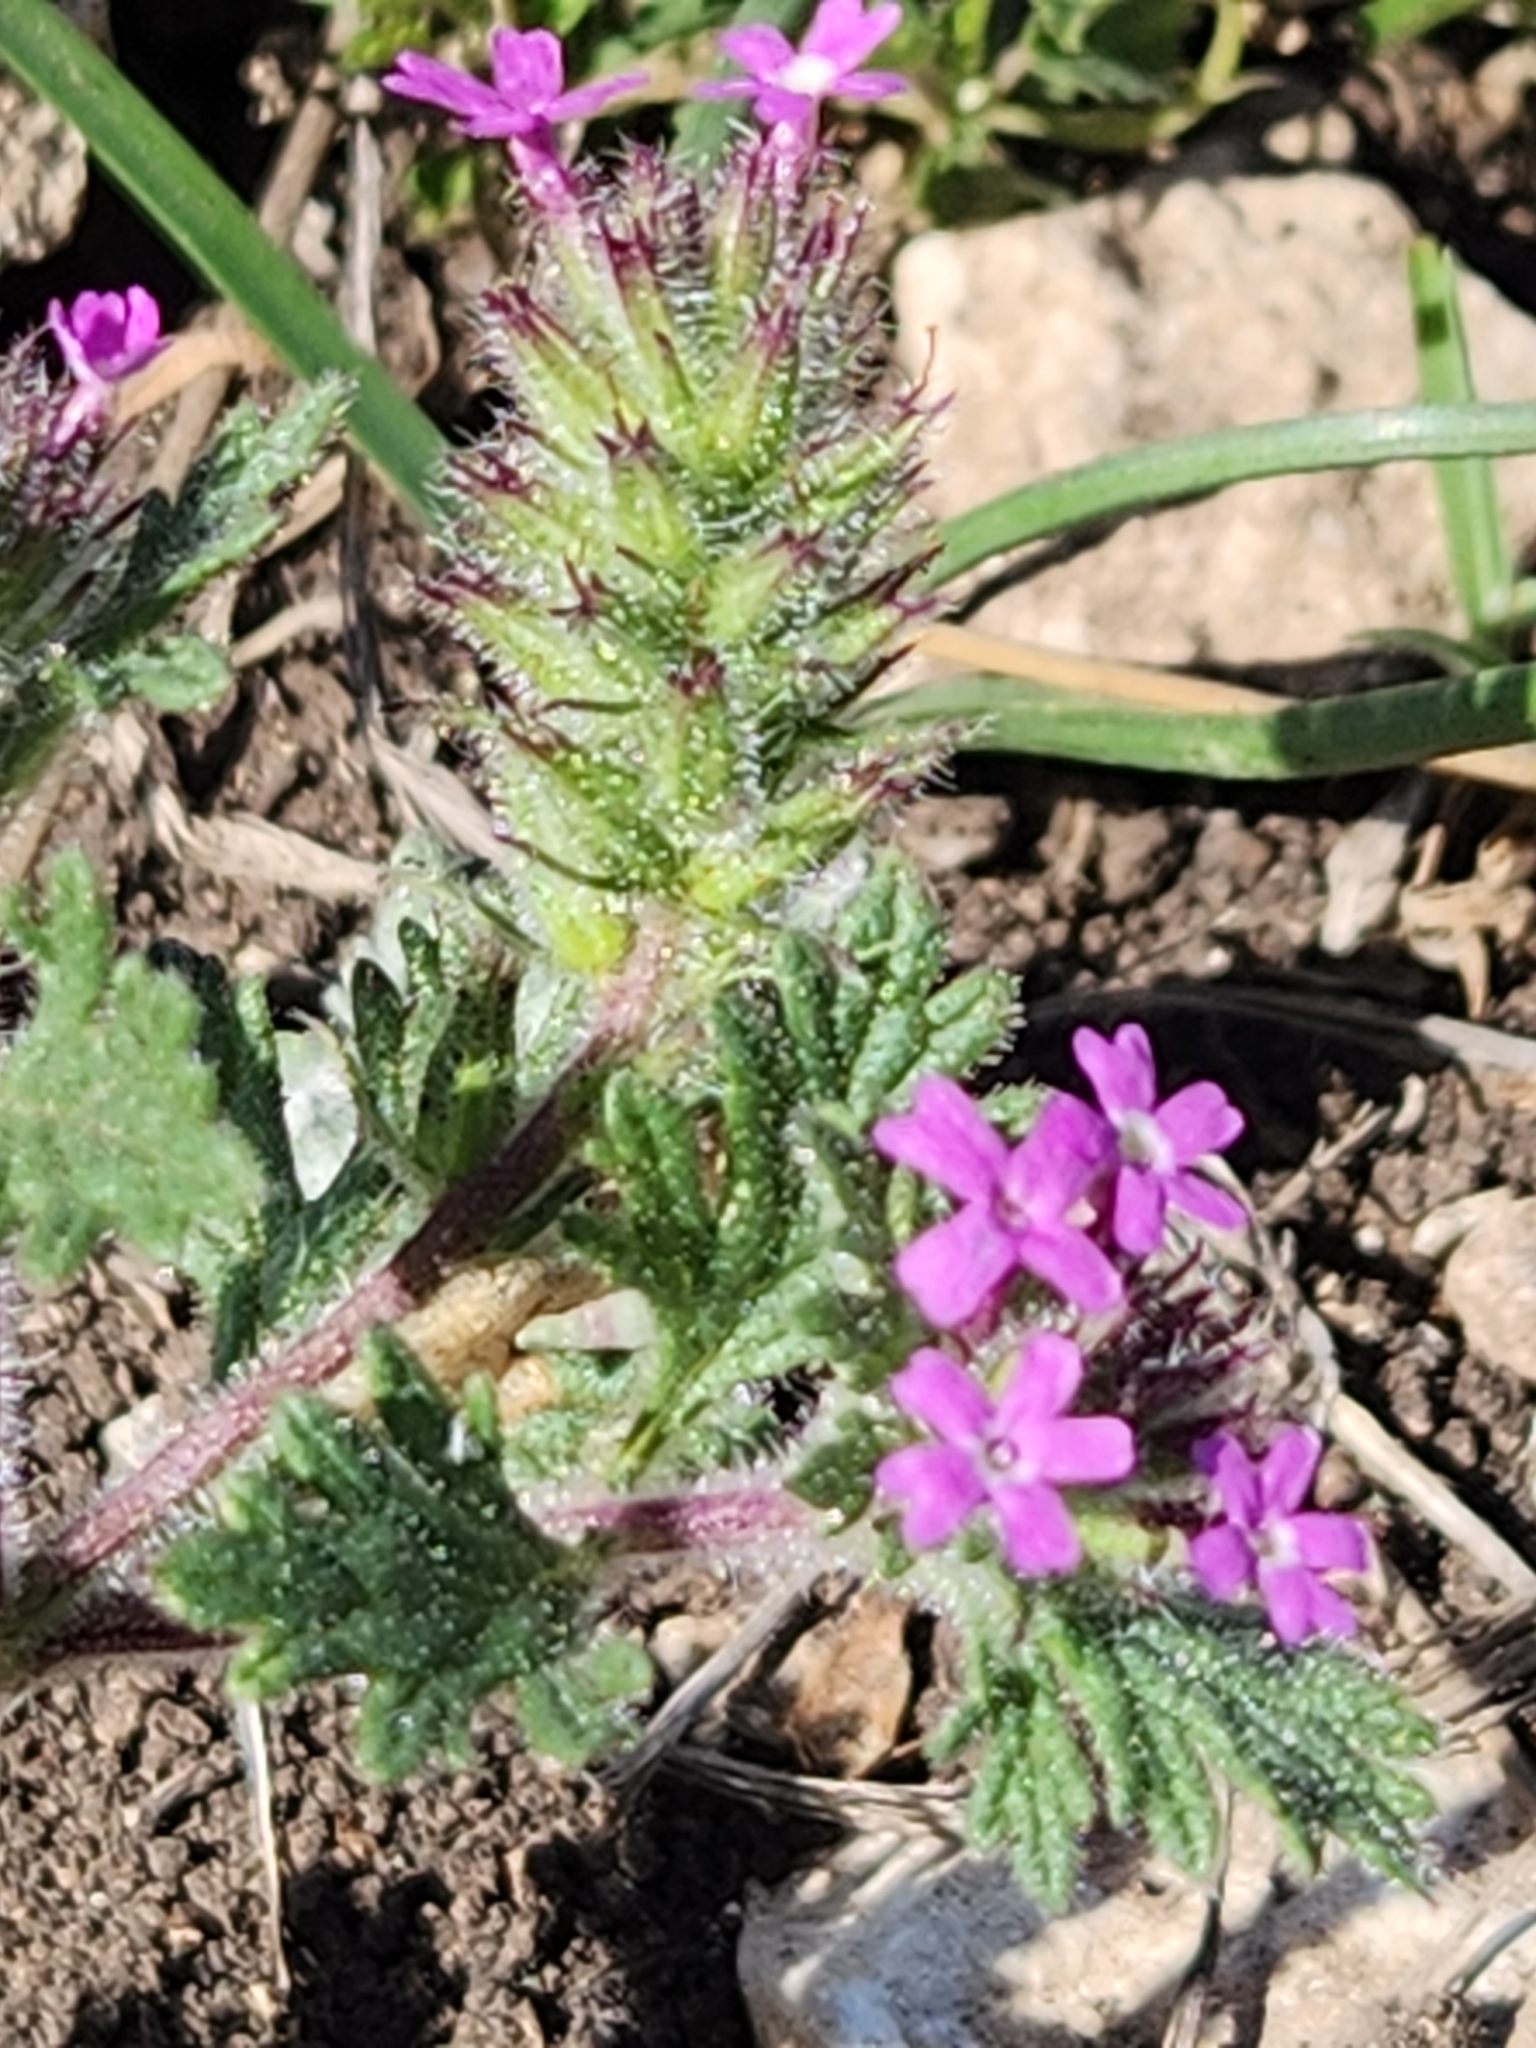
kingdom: Plantae
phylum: Tracheophyta
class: Magnoliopsida
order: Lamiales
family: Verbenaceae
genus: Verbena
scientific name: Verbena pumila
